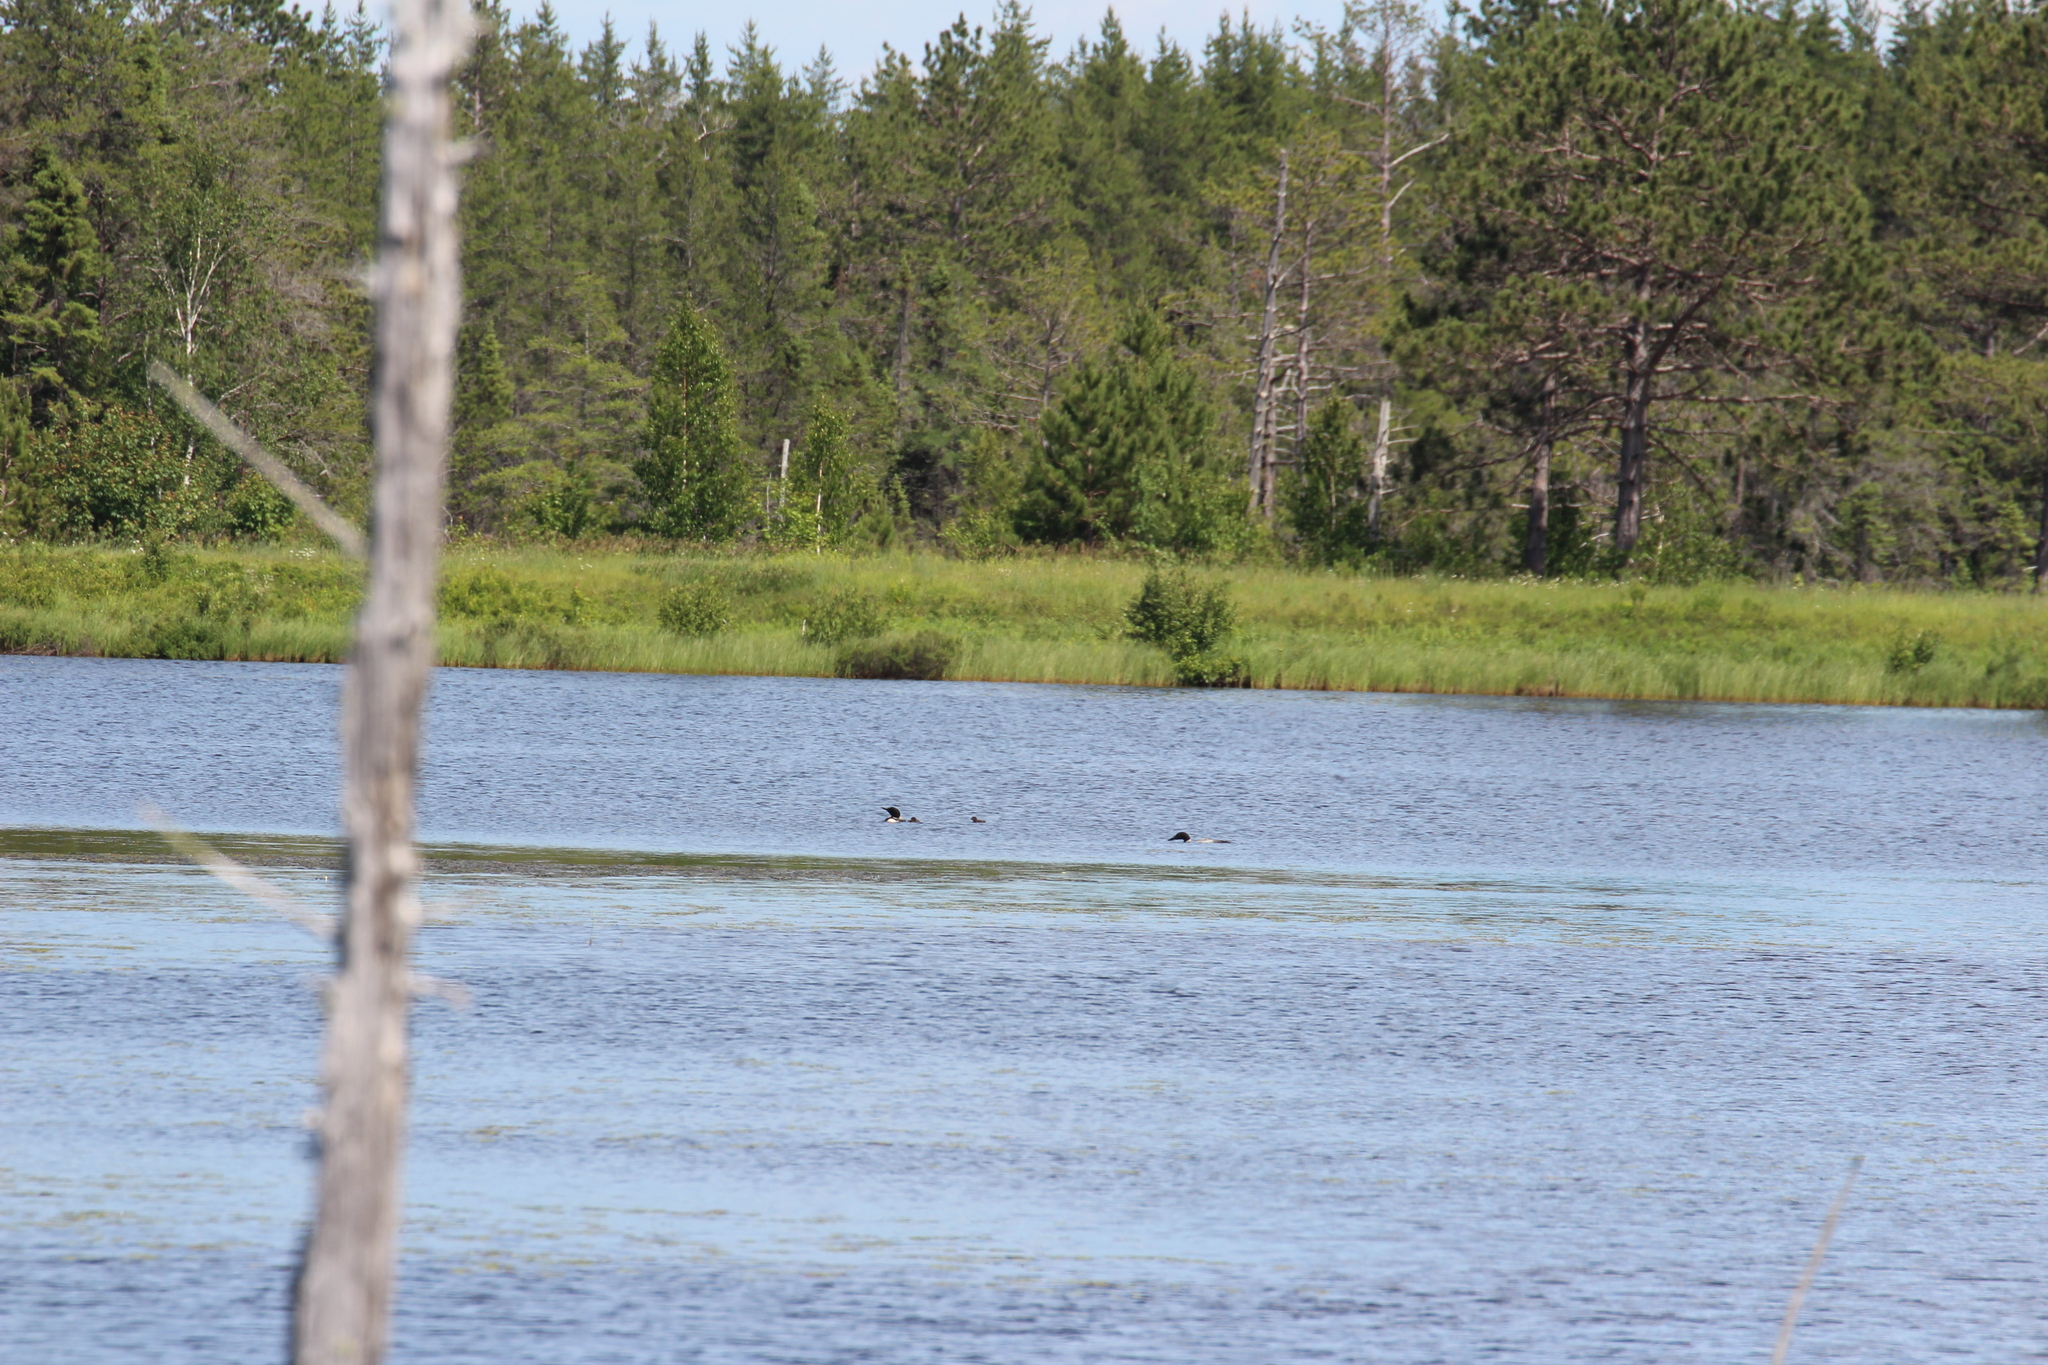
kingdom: Animalia
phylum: Chordata
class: Aves
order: Gaviiformes
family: Gaviidae
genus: Gavia
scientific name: Gavia immer
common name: Common loon
